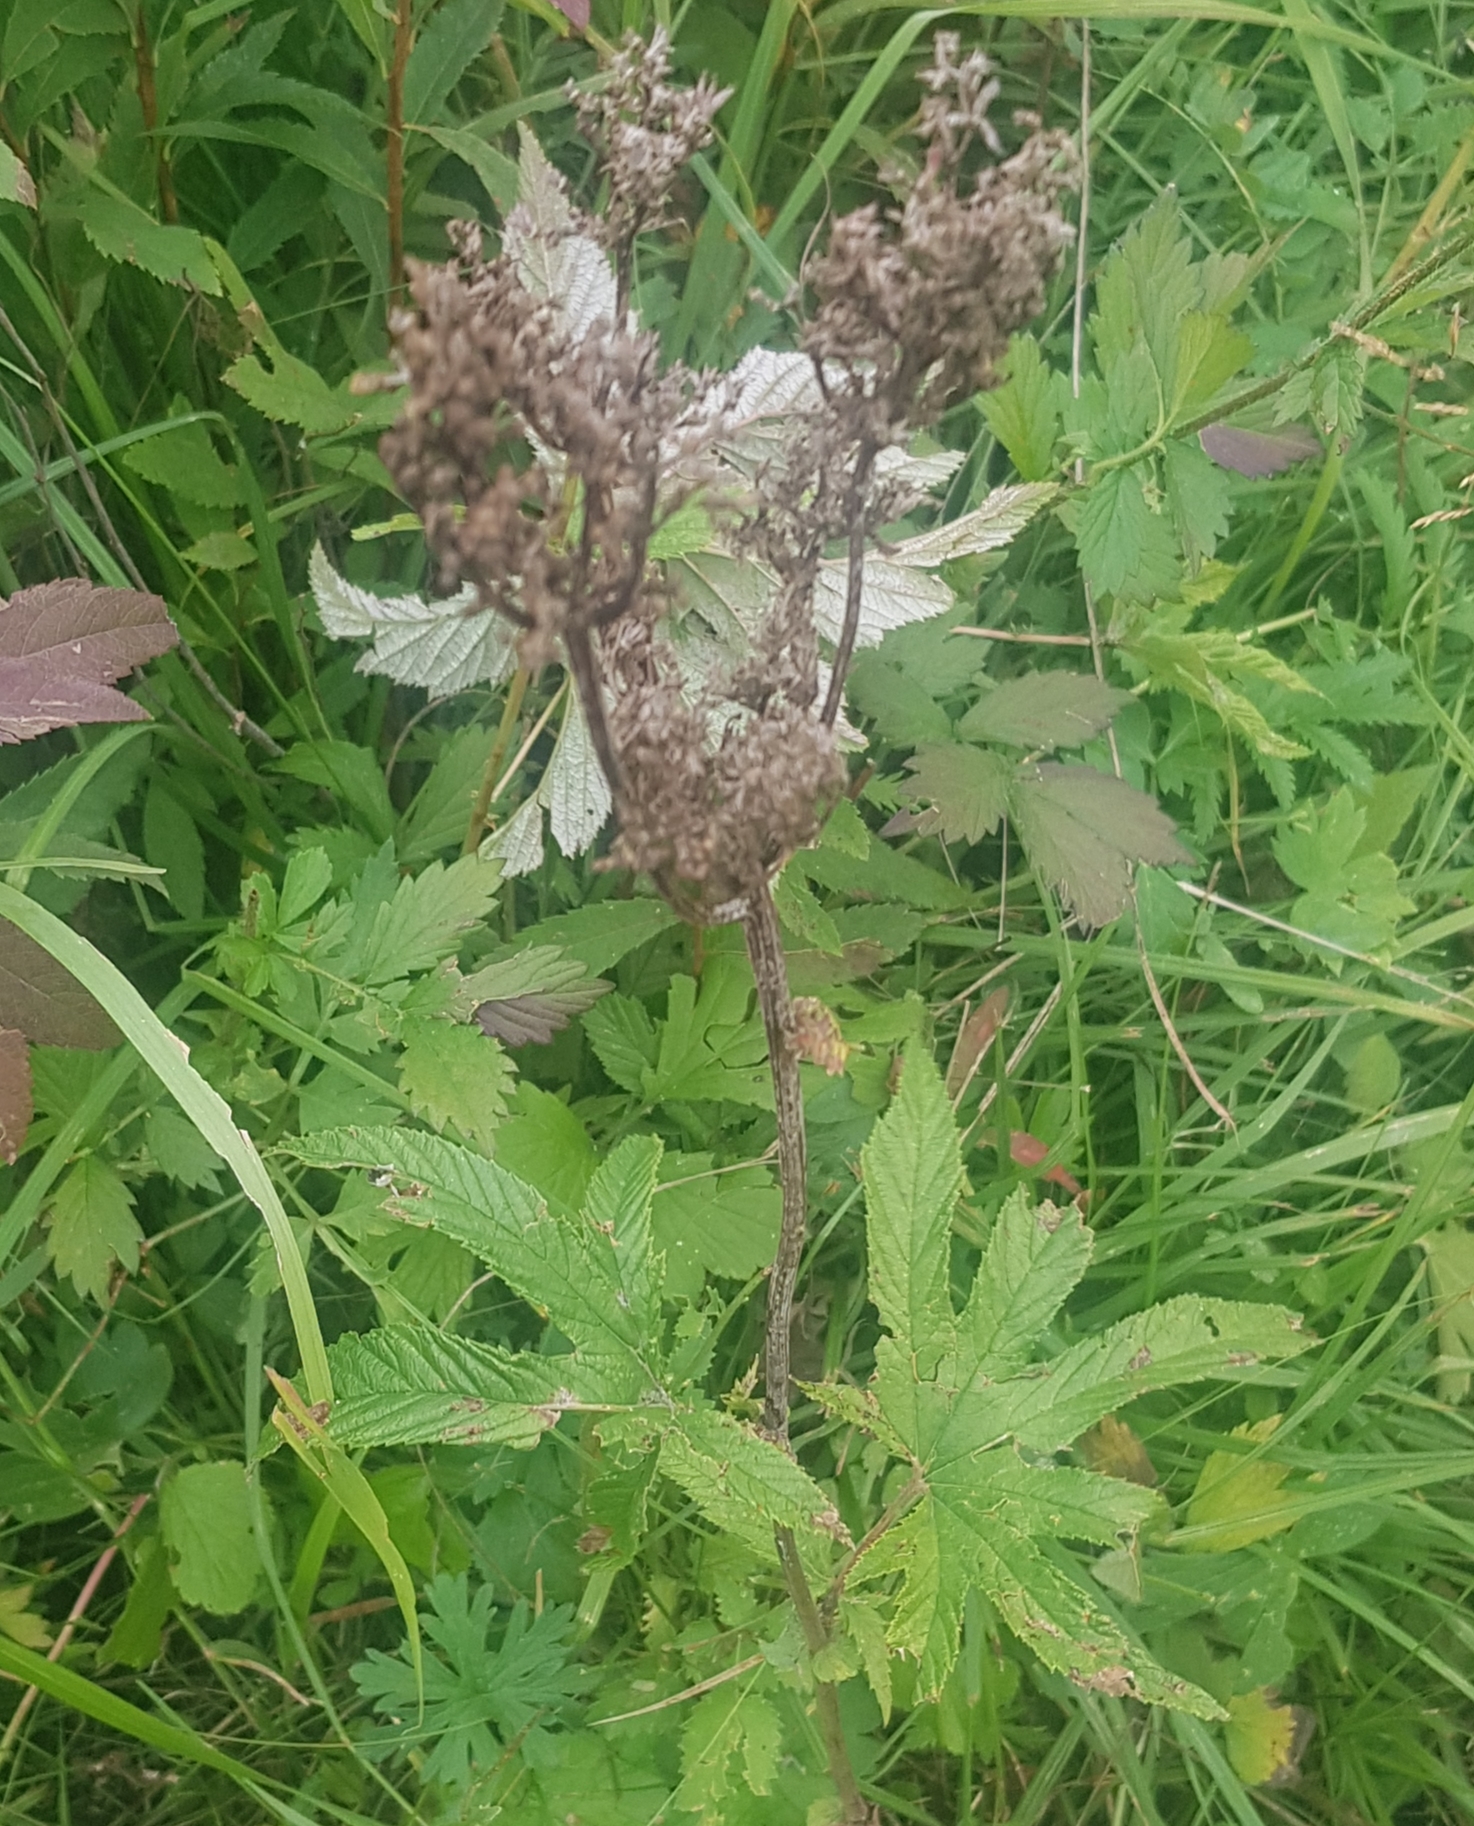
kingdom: Plantae
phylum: Tracheophyta
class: Magnoliopsida
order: Rosales
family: Rosaceae
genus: Filipendula
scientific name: Filipendula digitata
